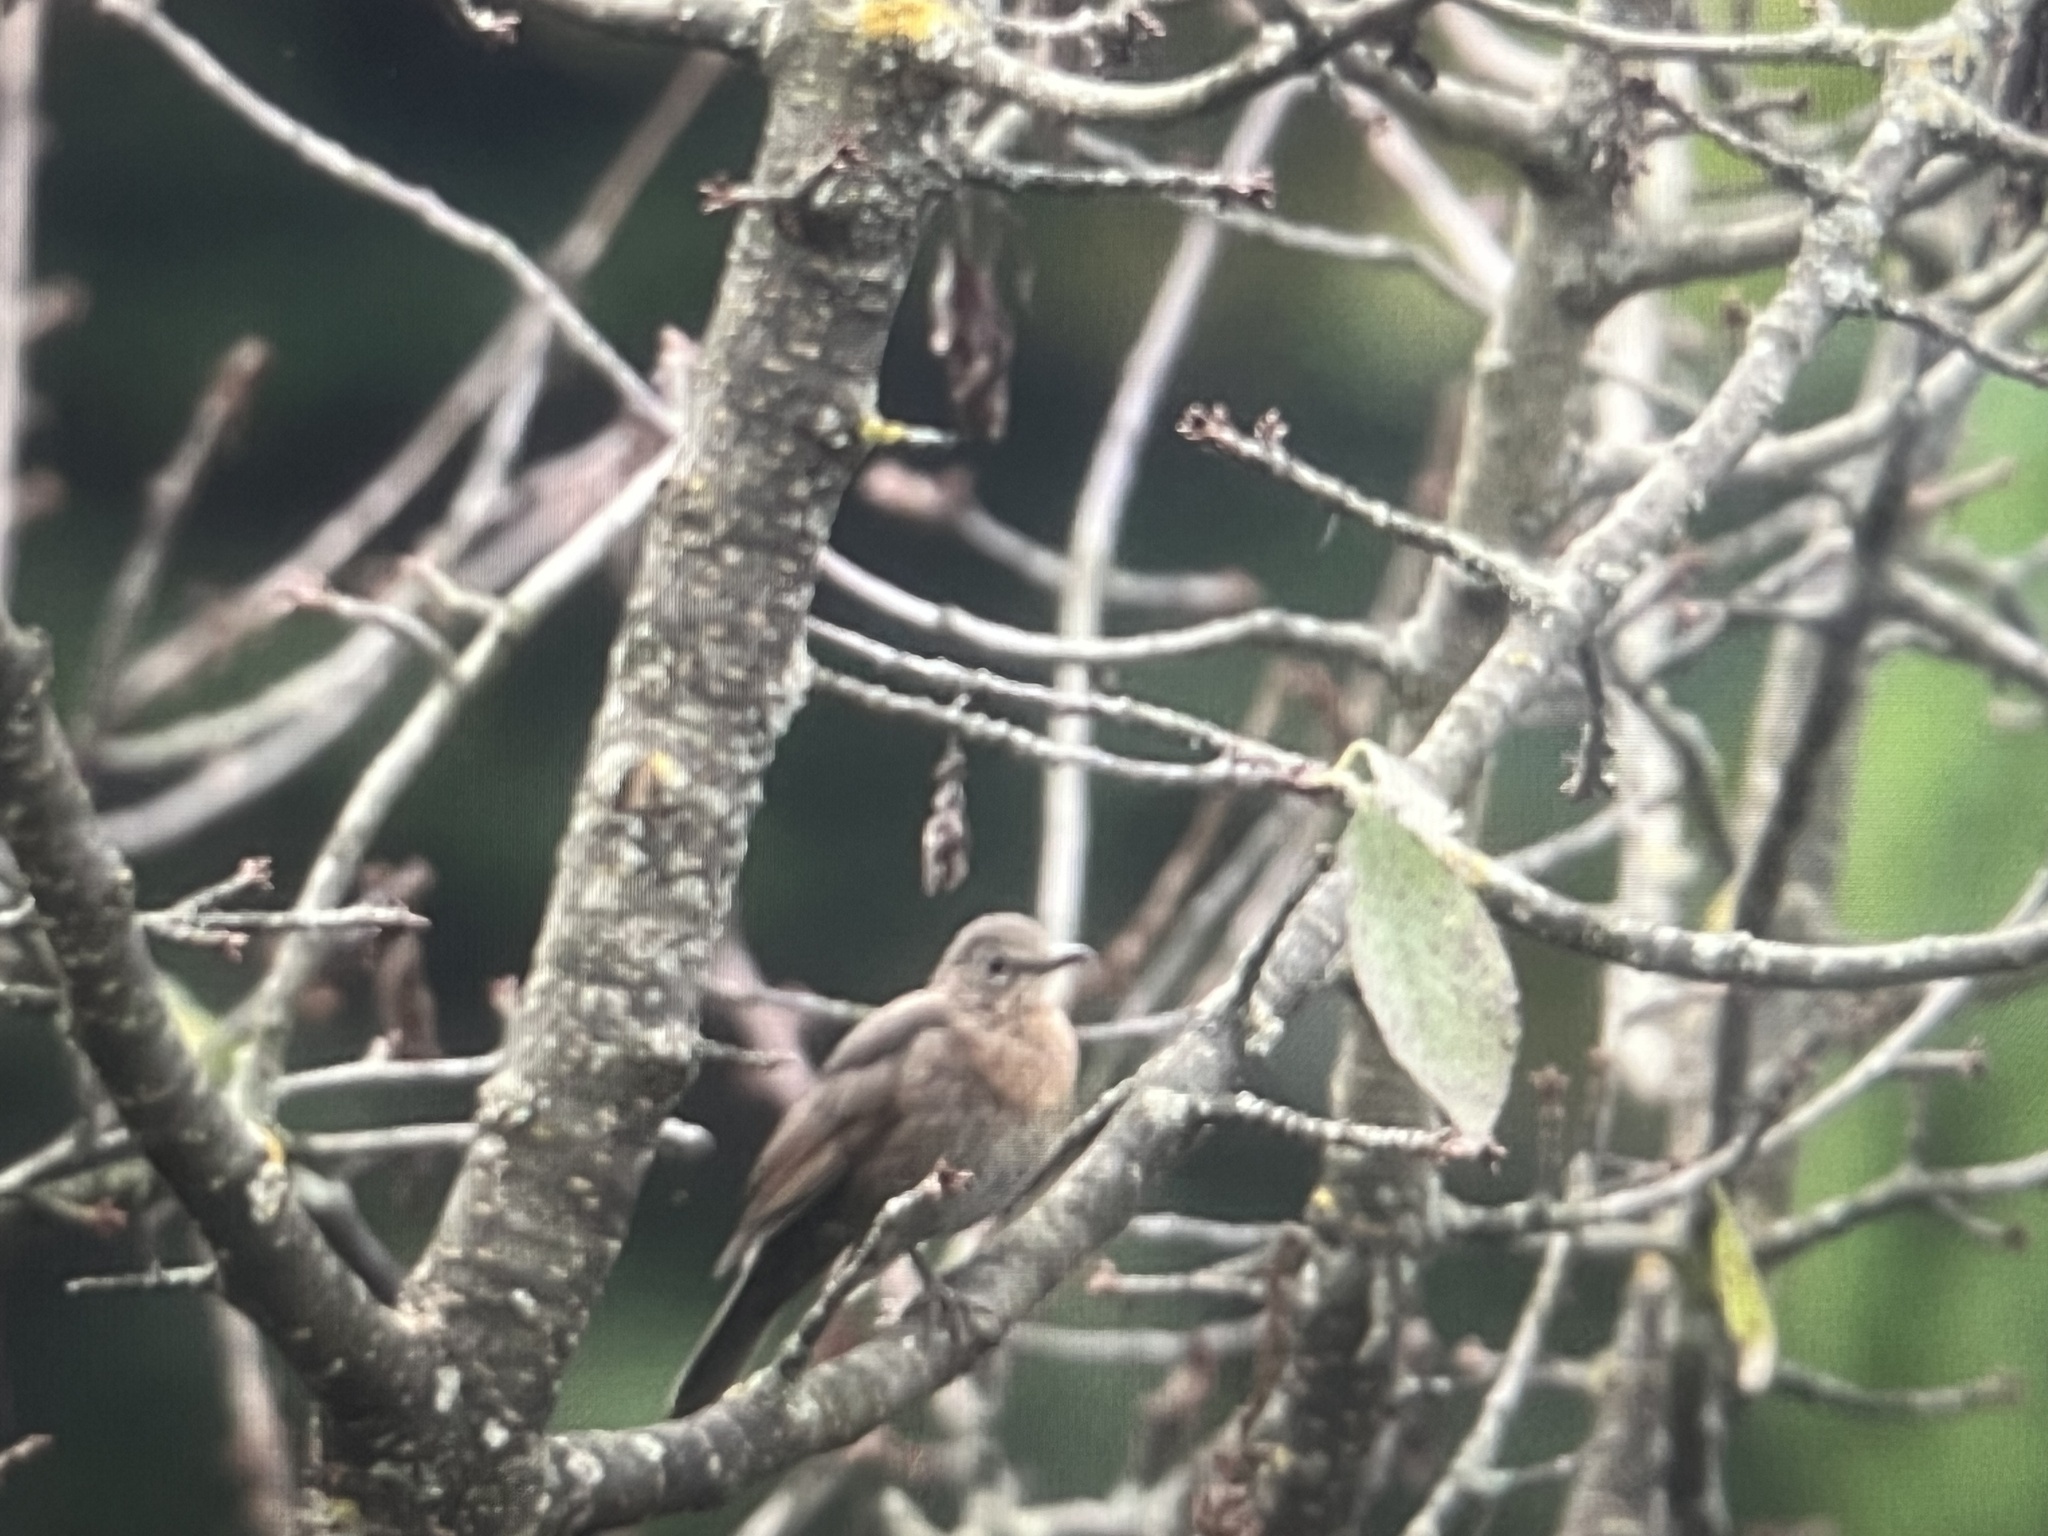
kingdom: Animalia
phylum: Chordata
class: Aves
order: Passeriformes
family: Turdidae
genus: Turdus
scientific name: Turdus merula
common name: Common blackbird
